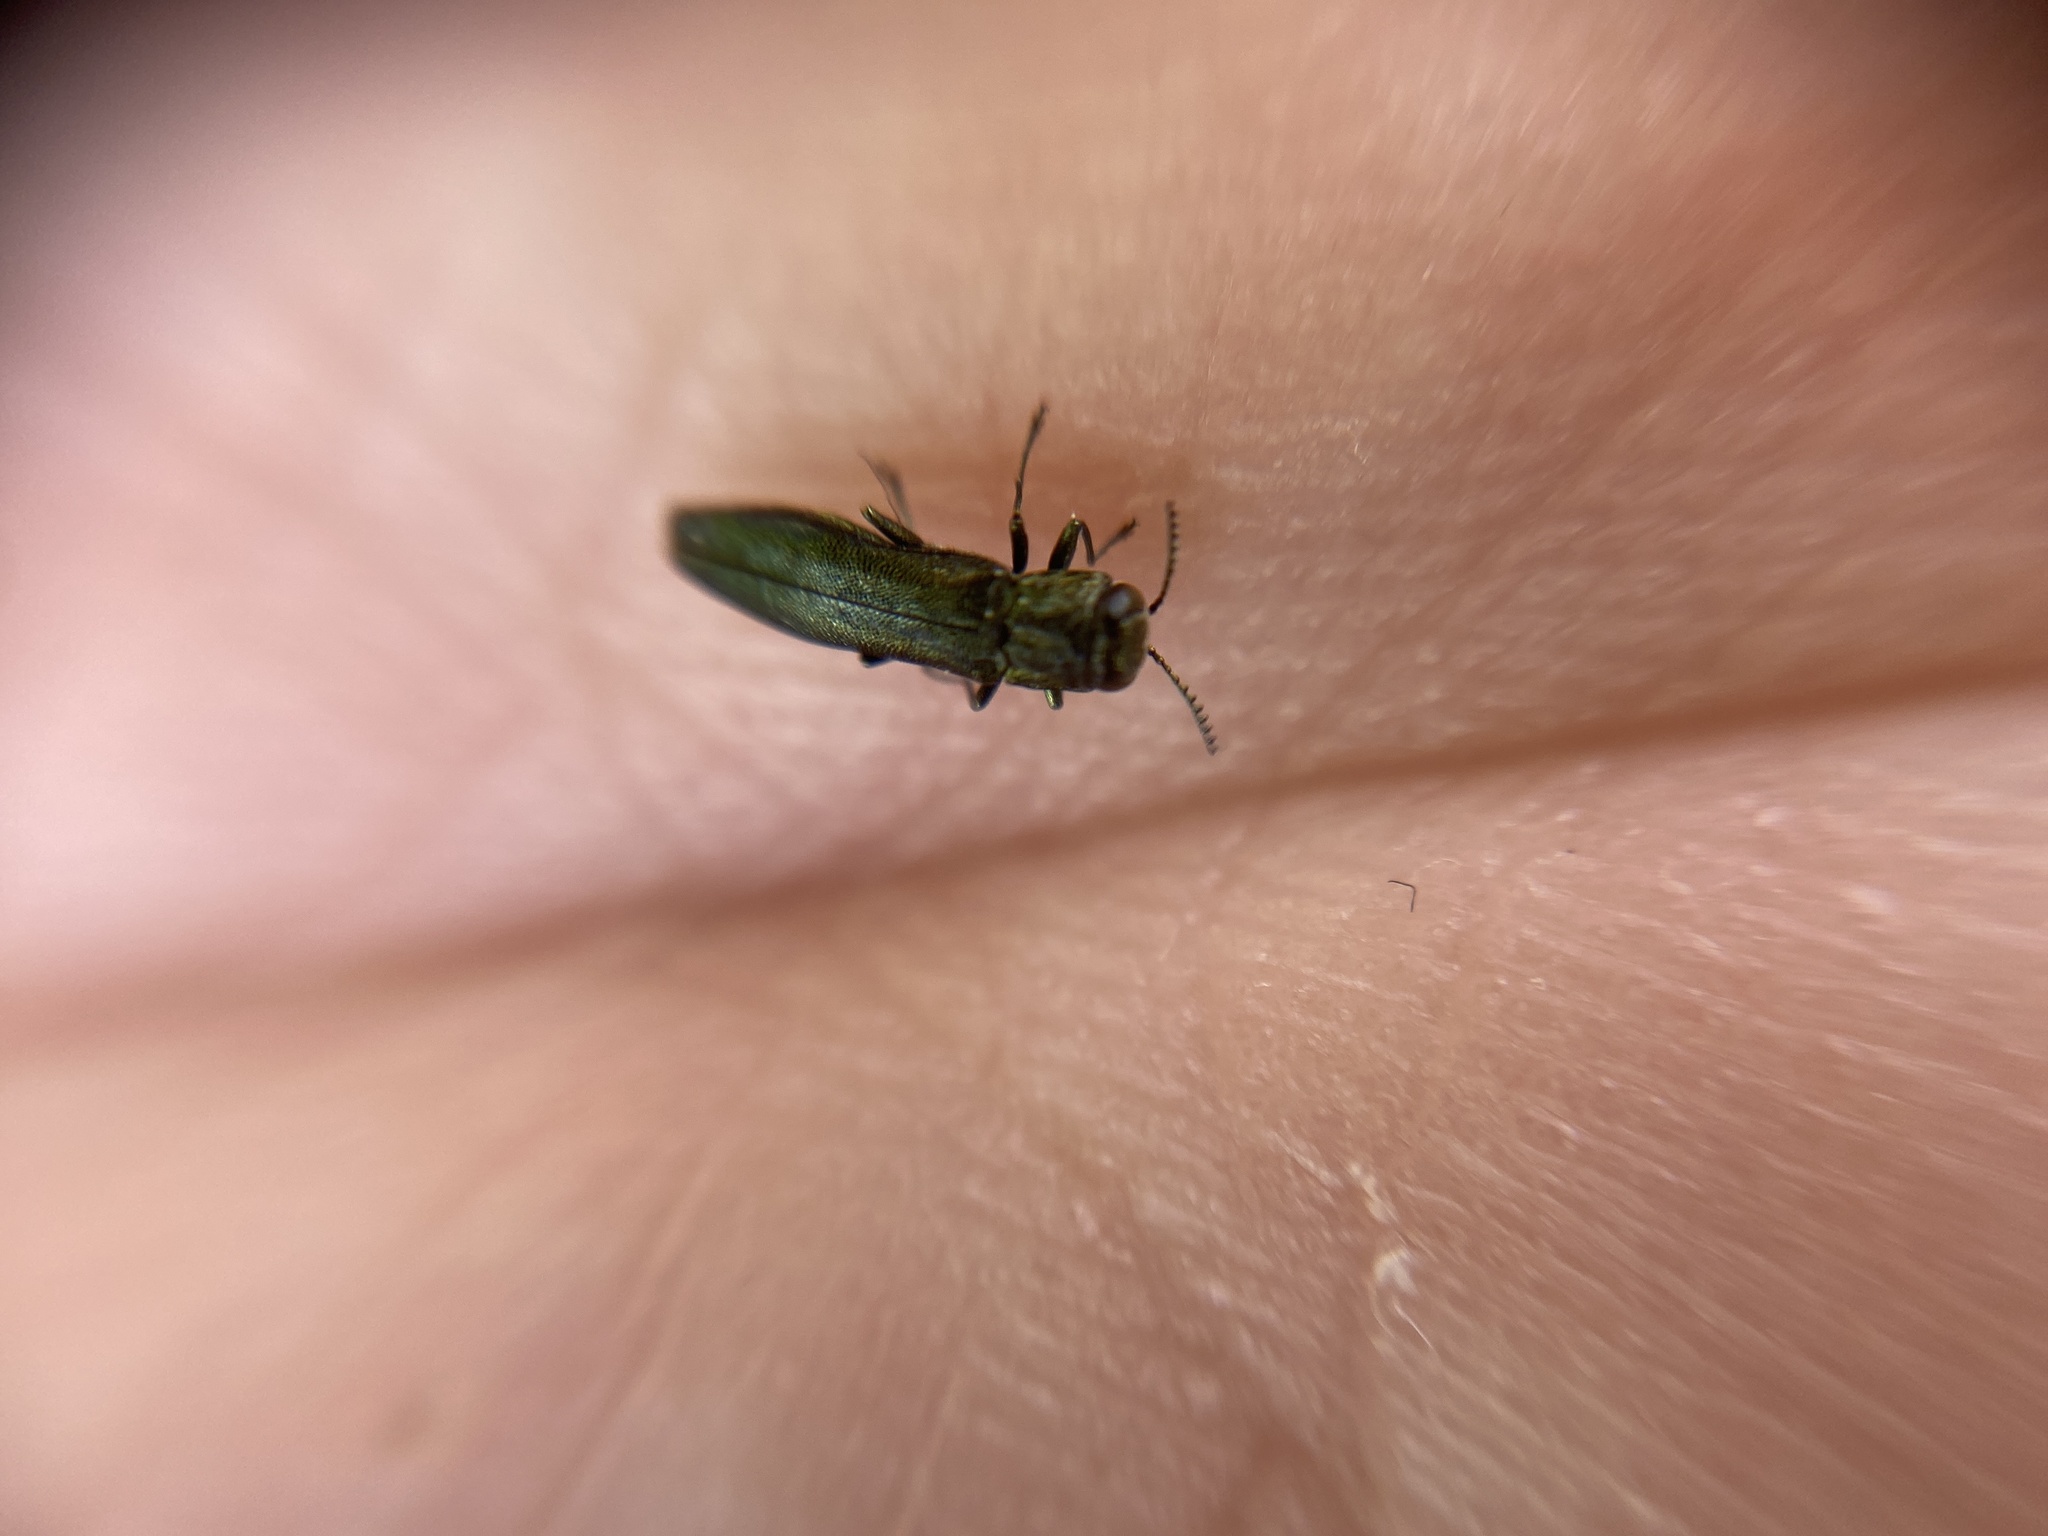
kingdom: Animalia
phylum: Arthropoda
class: Insecta
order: Coleoptera
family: Buprestidae
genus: Agrilus
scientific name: Agrilus angustulus
